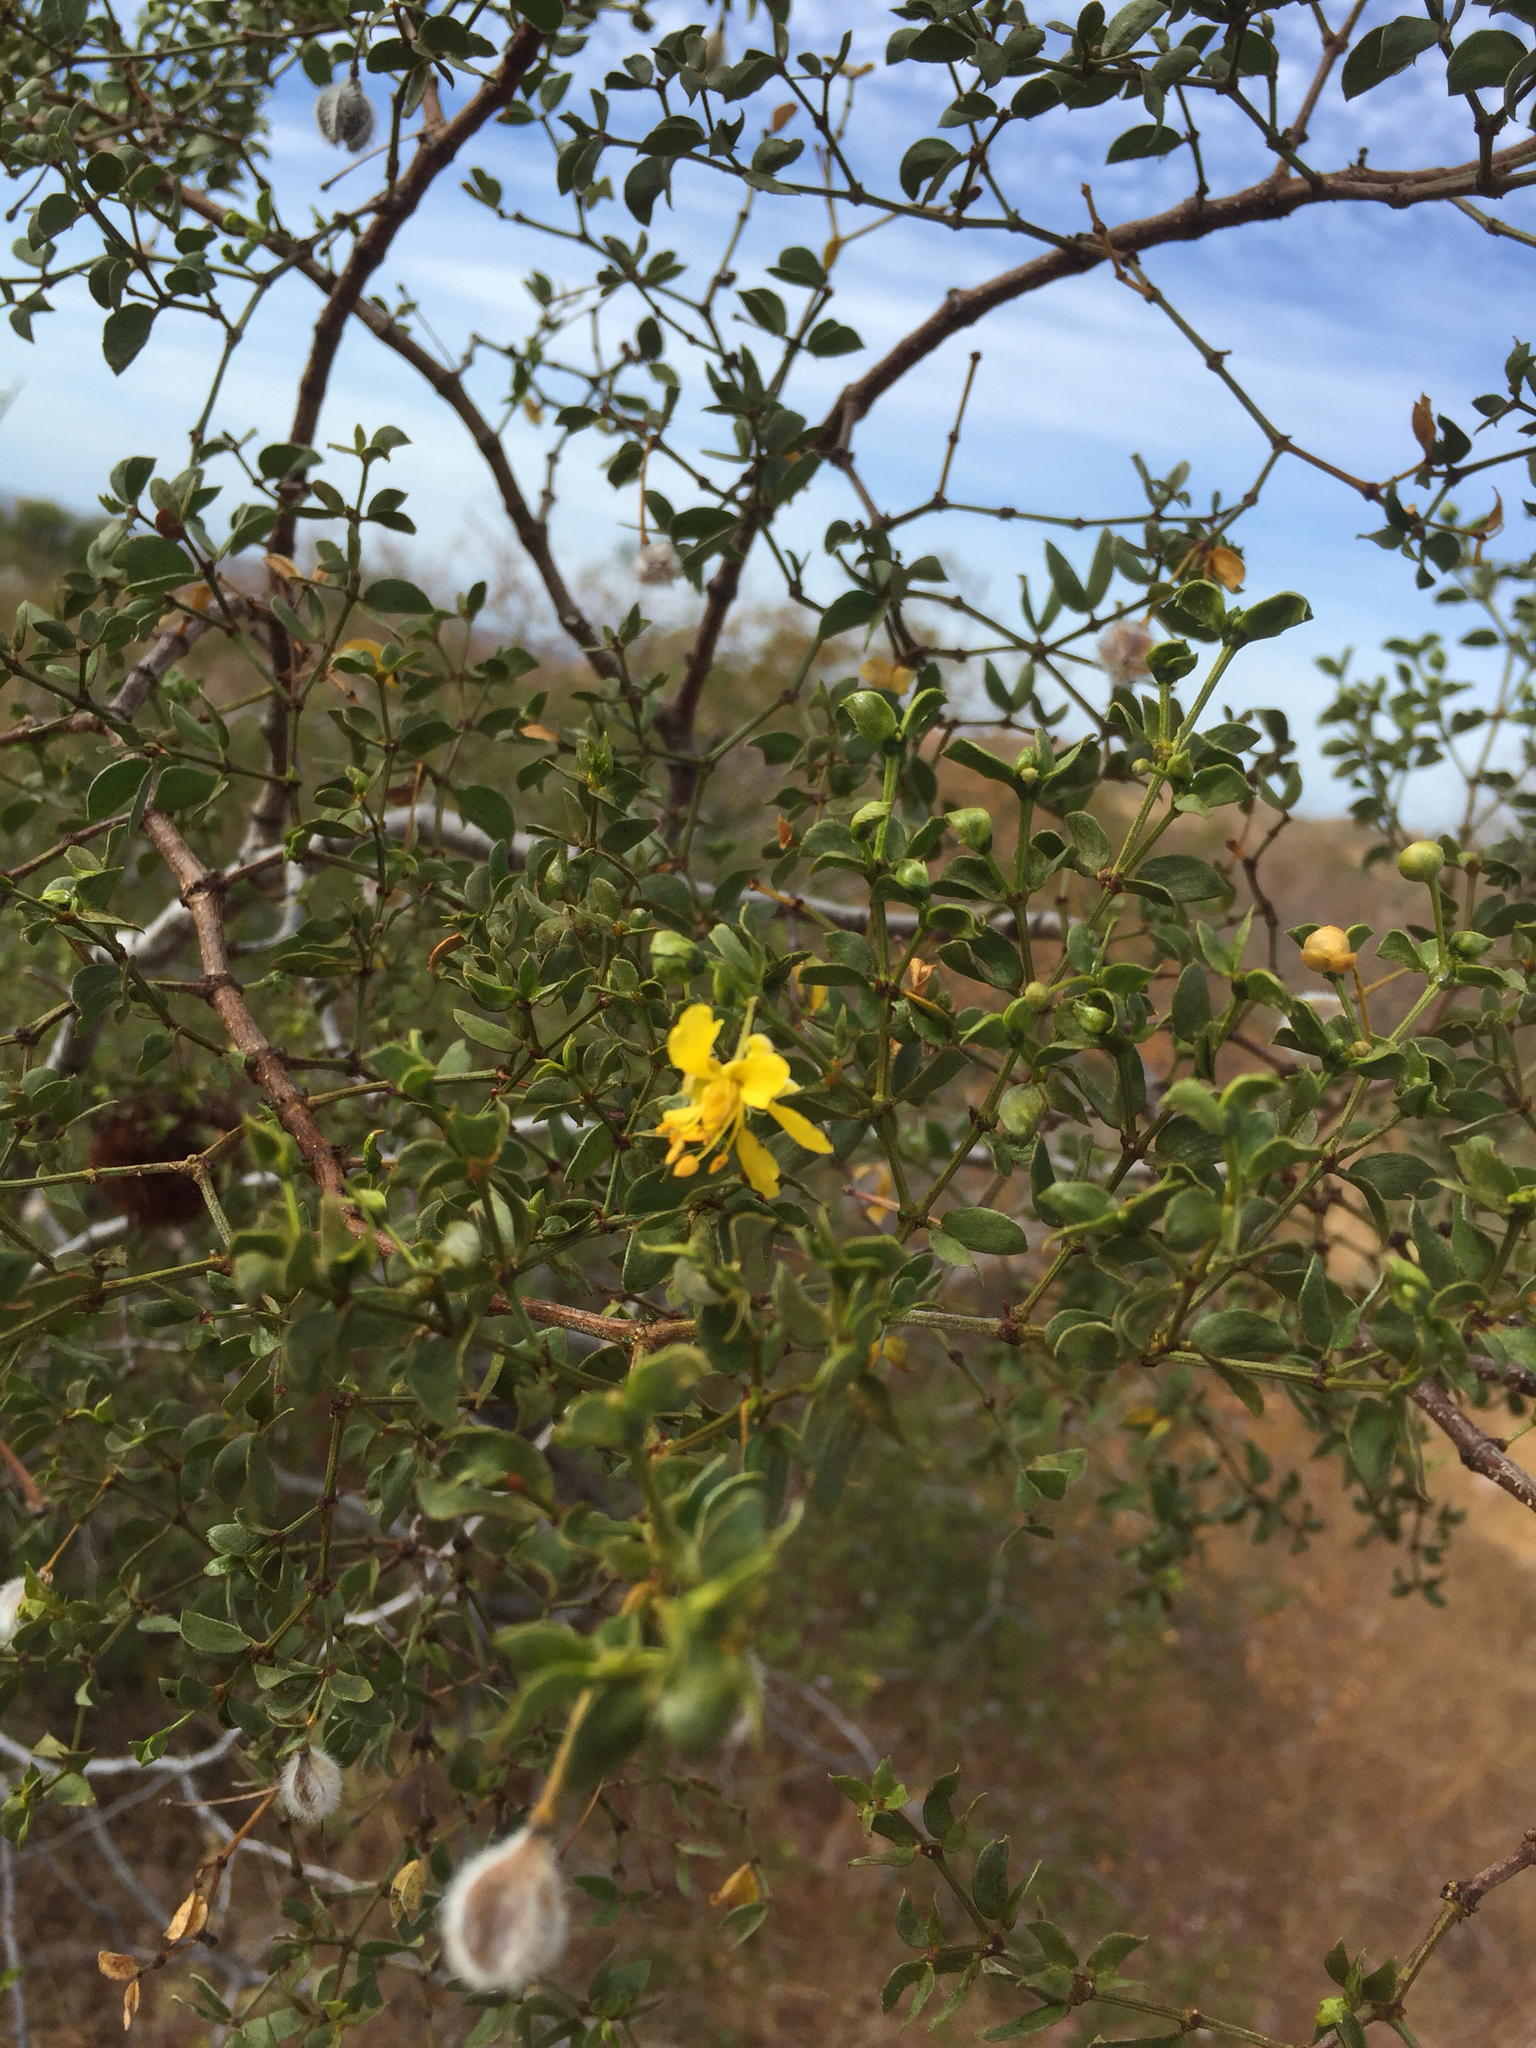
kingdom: Plantae
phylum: Tracheophyta
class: Magnoliopsida
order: Zygophyllales
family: Zygophyllaceae
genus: Larrea
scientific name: Larrea tridentata
